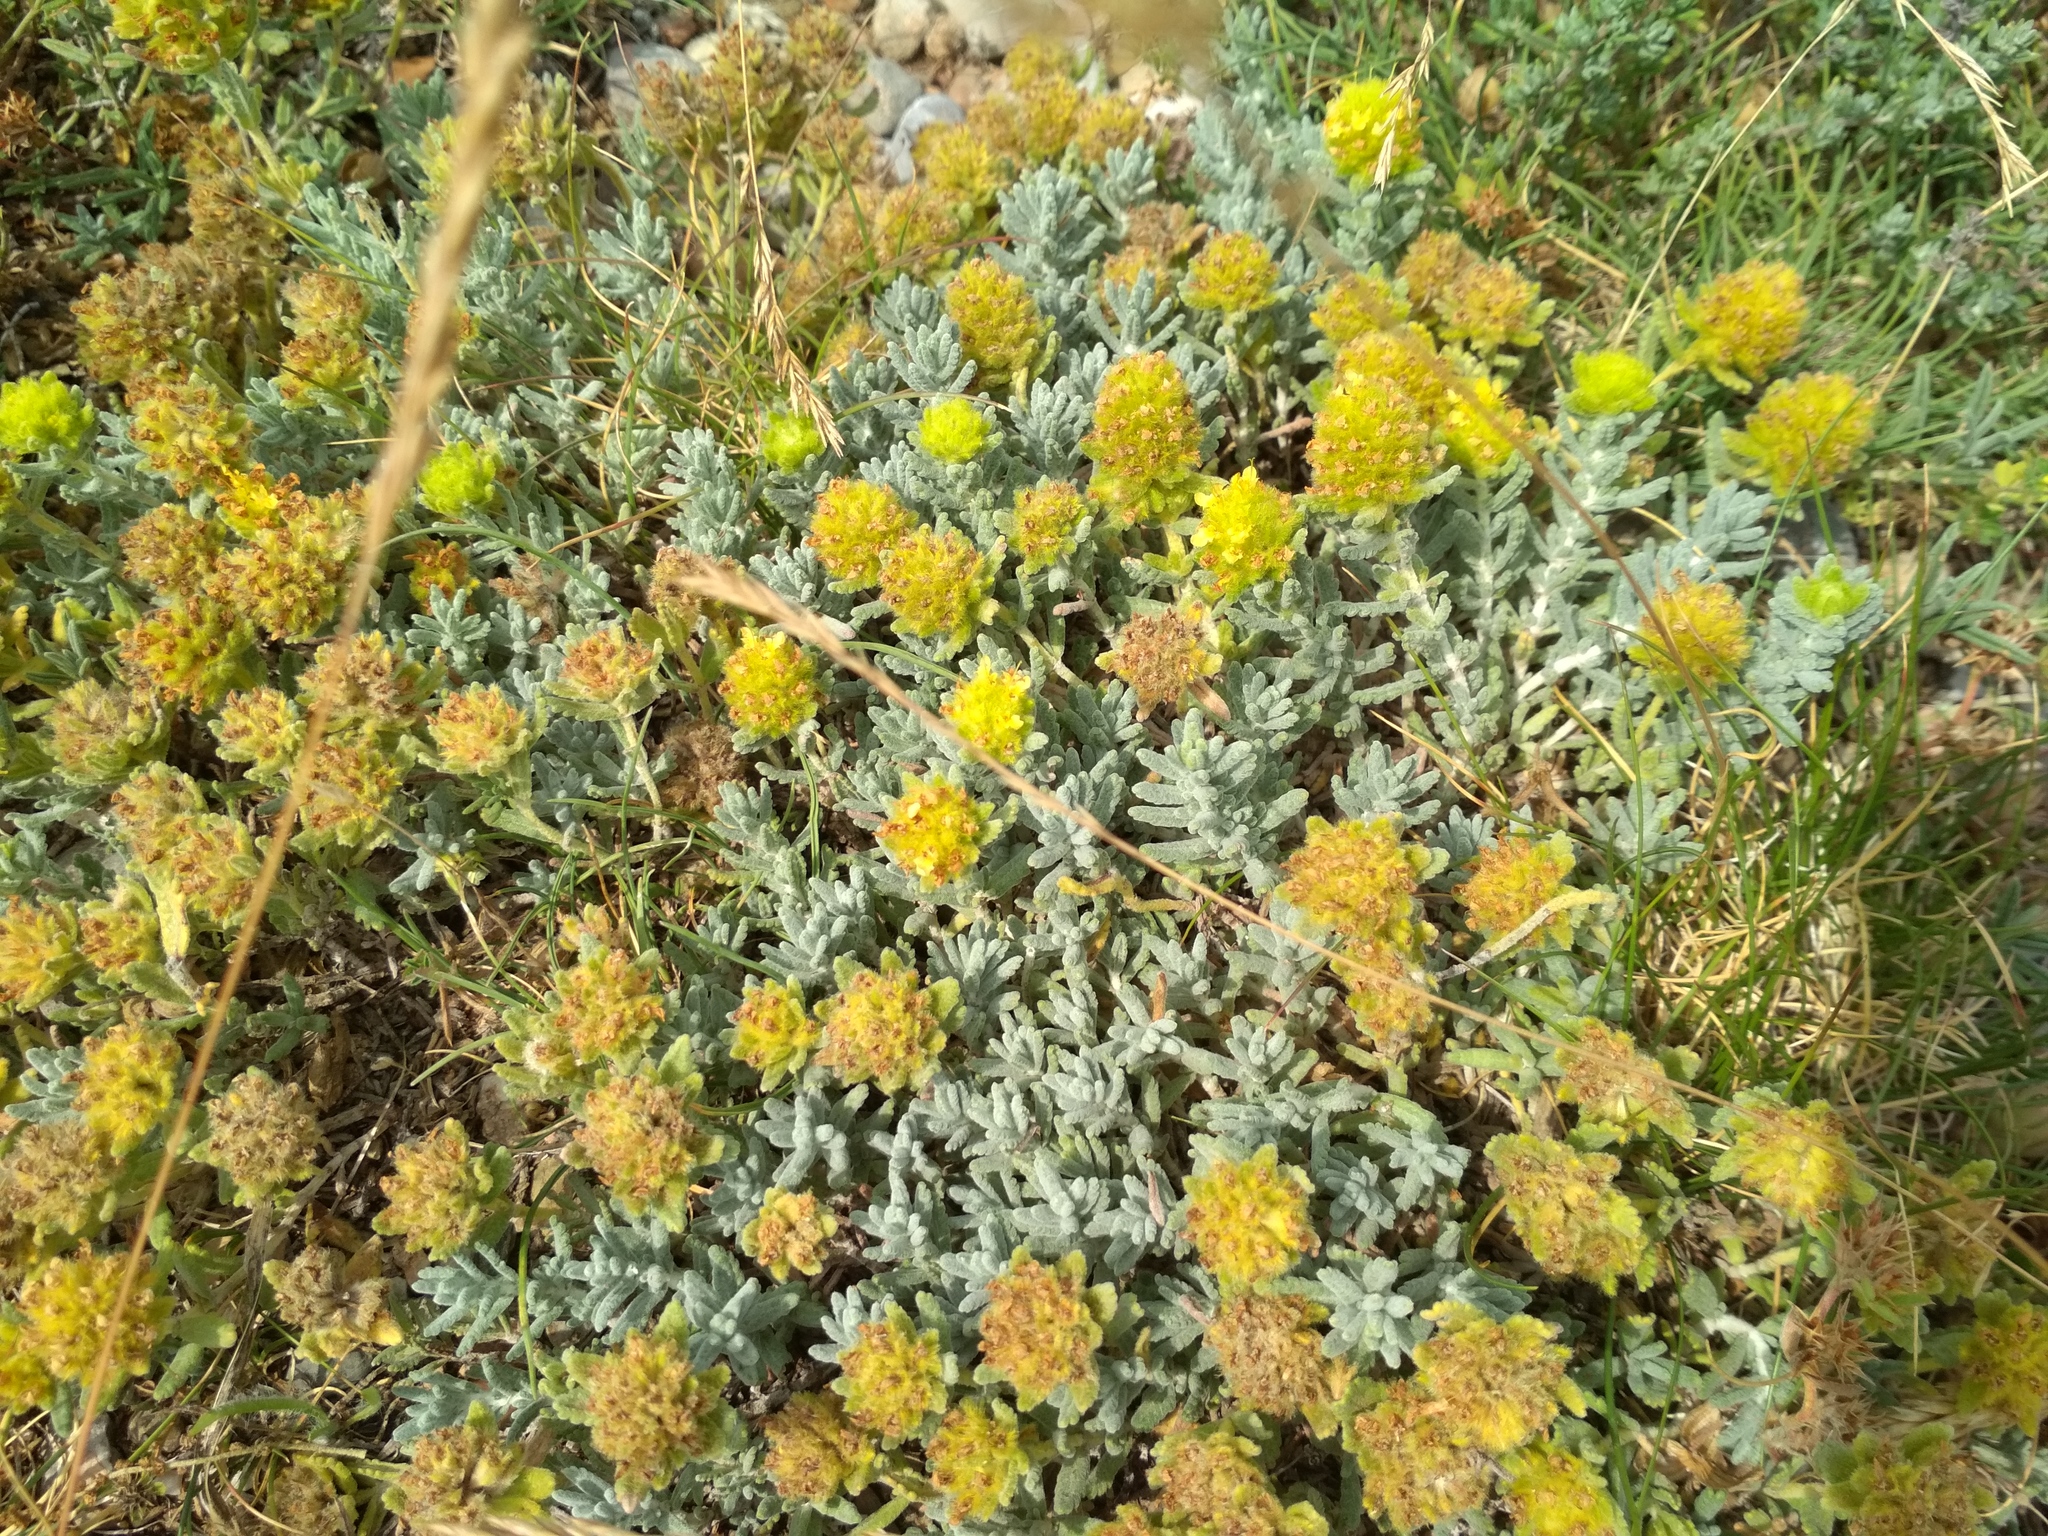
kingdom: Plantae
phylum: Tracheophyta
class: Magnoliopsida
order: Lamiales
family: Lamiaceae
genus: Teucrium
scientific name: Teucrium aureum
